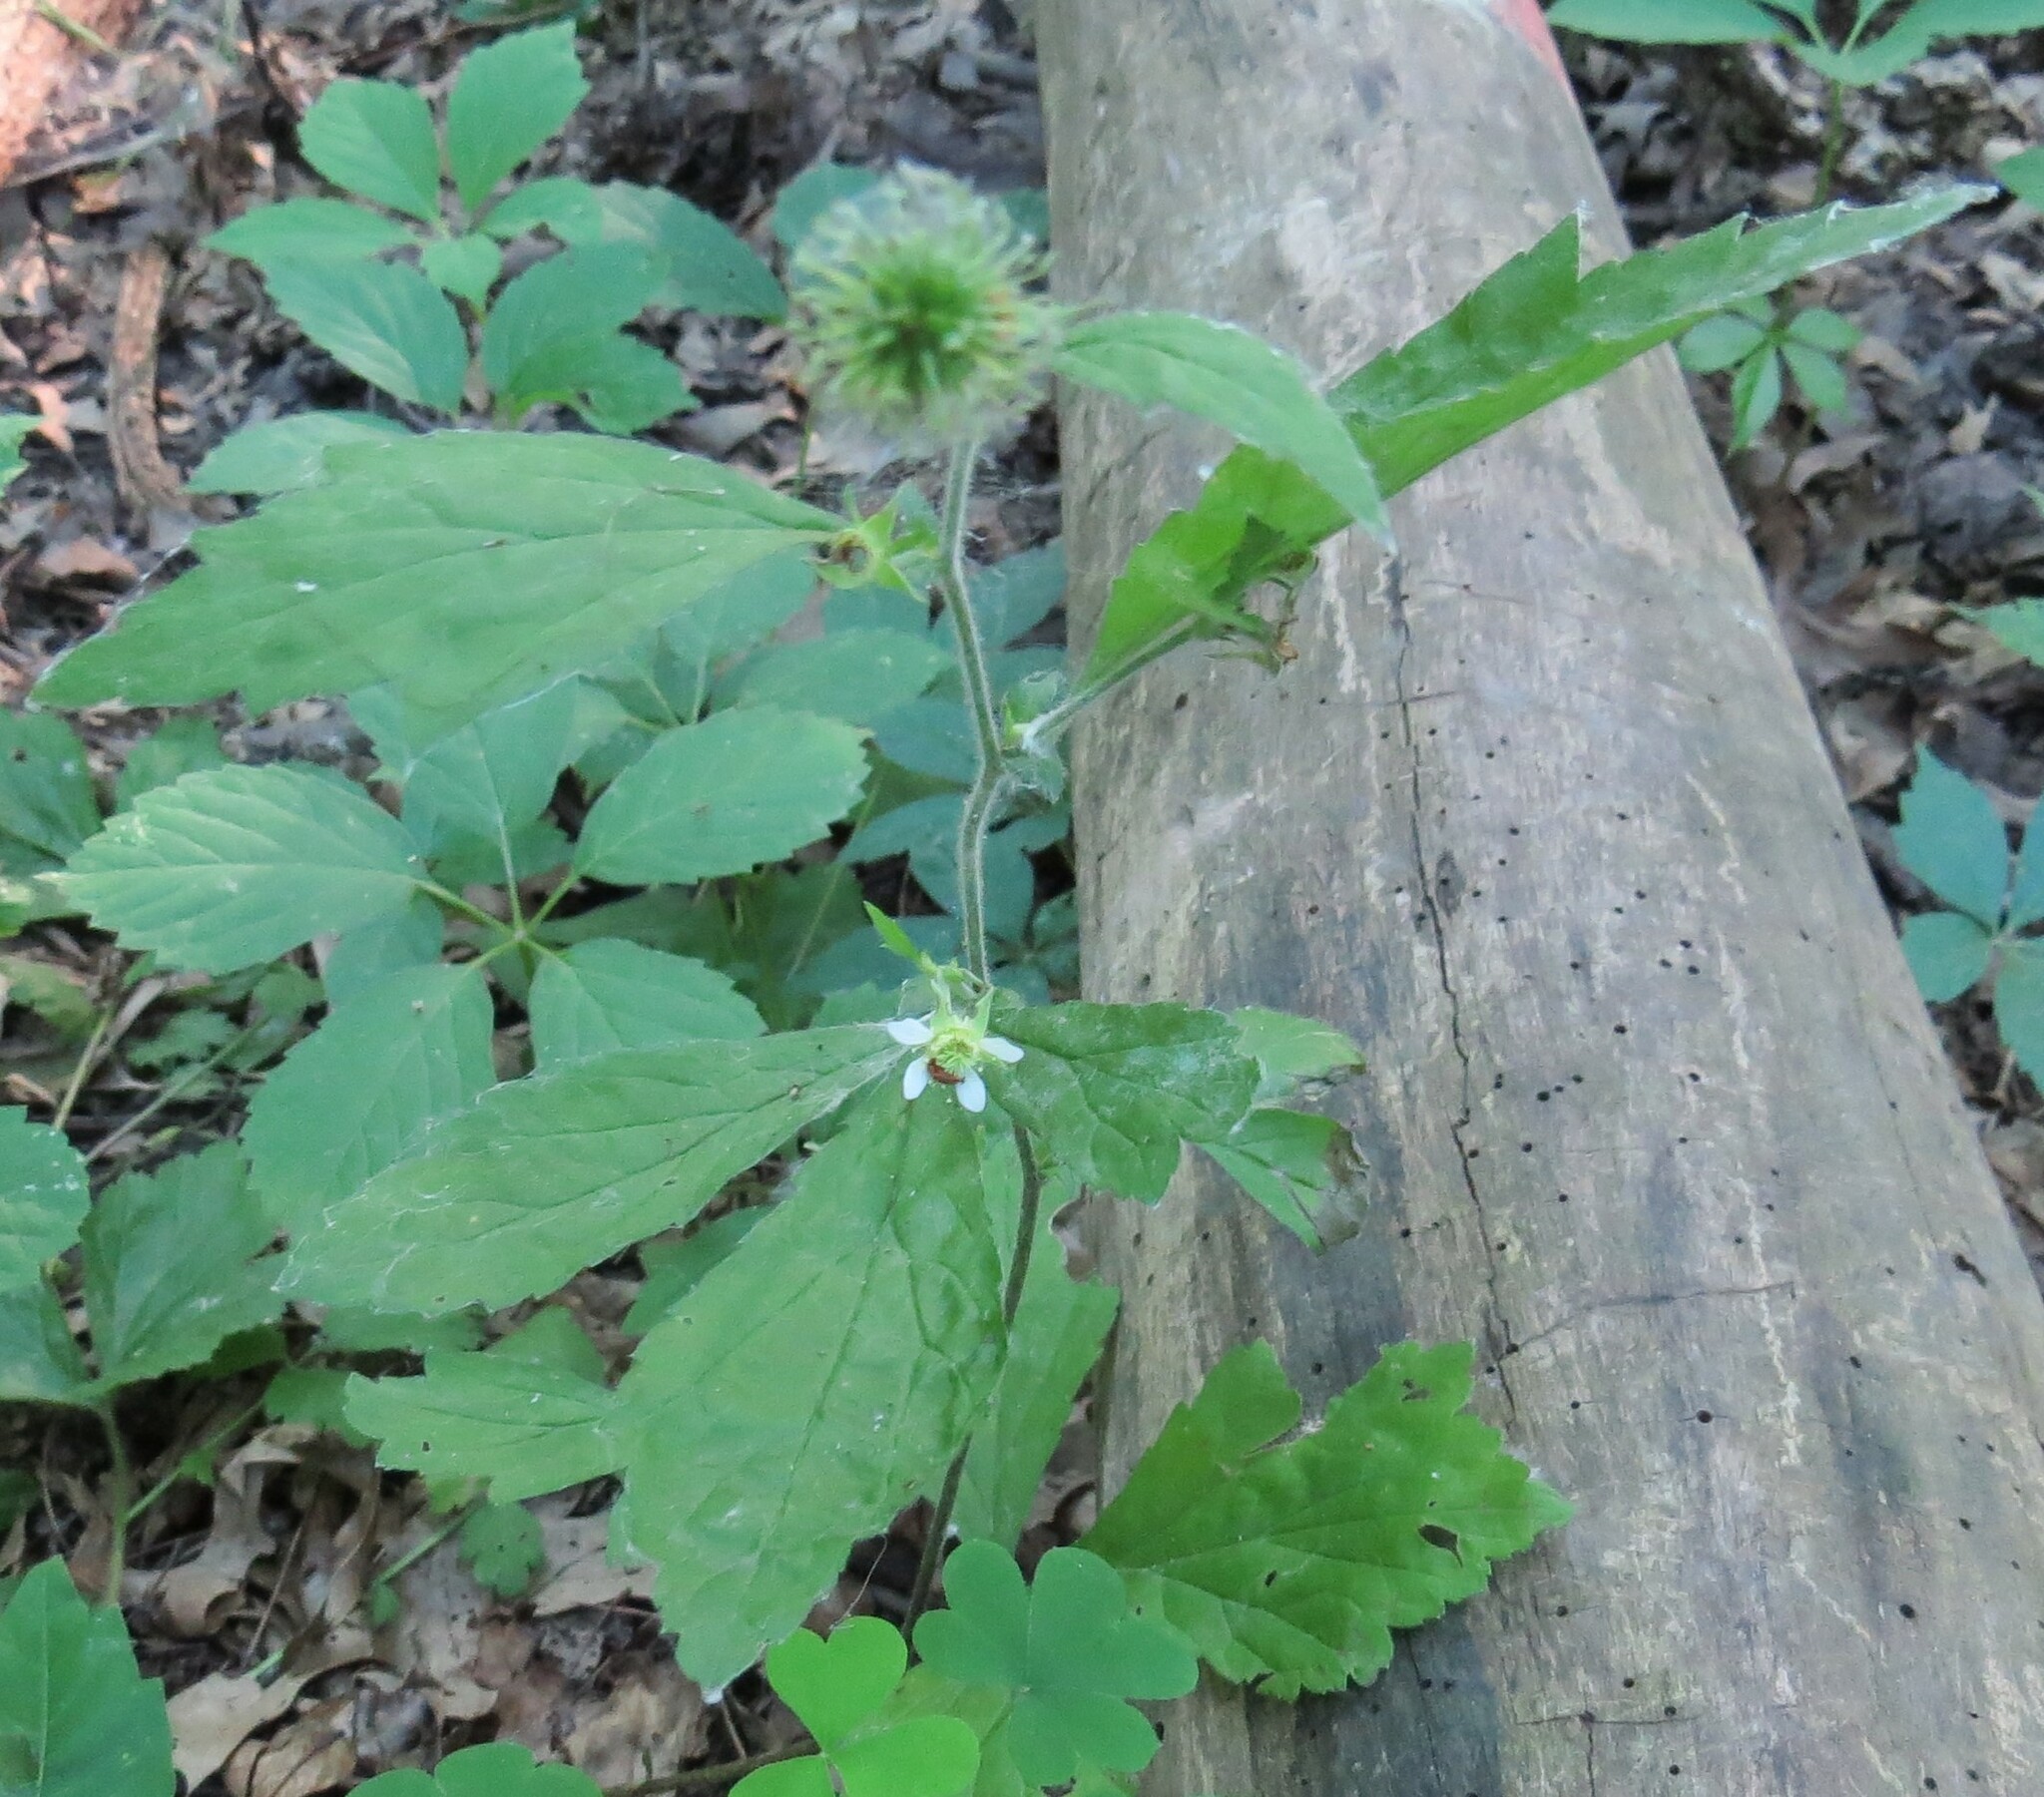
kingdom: Plantae
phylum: Tracheophyta
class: Magnoliopsida
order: Rosales
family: Rosaceae
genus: Geum
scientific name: Geum canadense
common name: White avens
